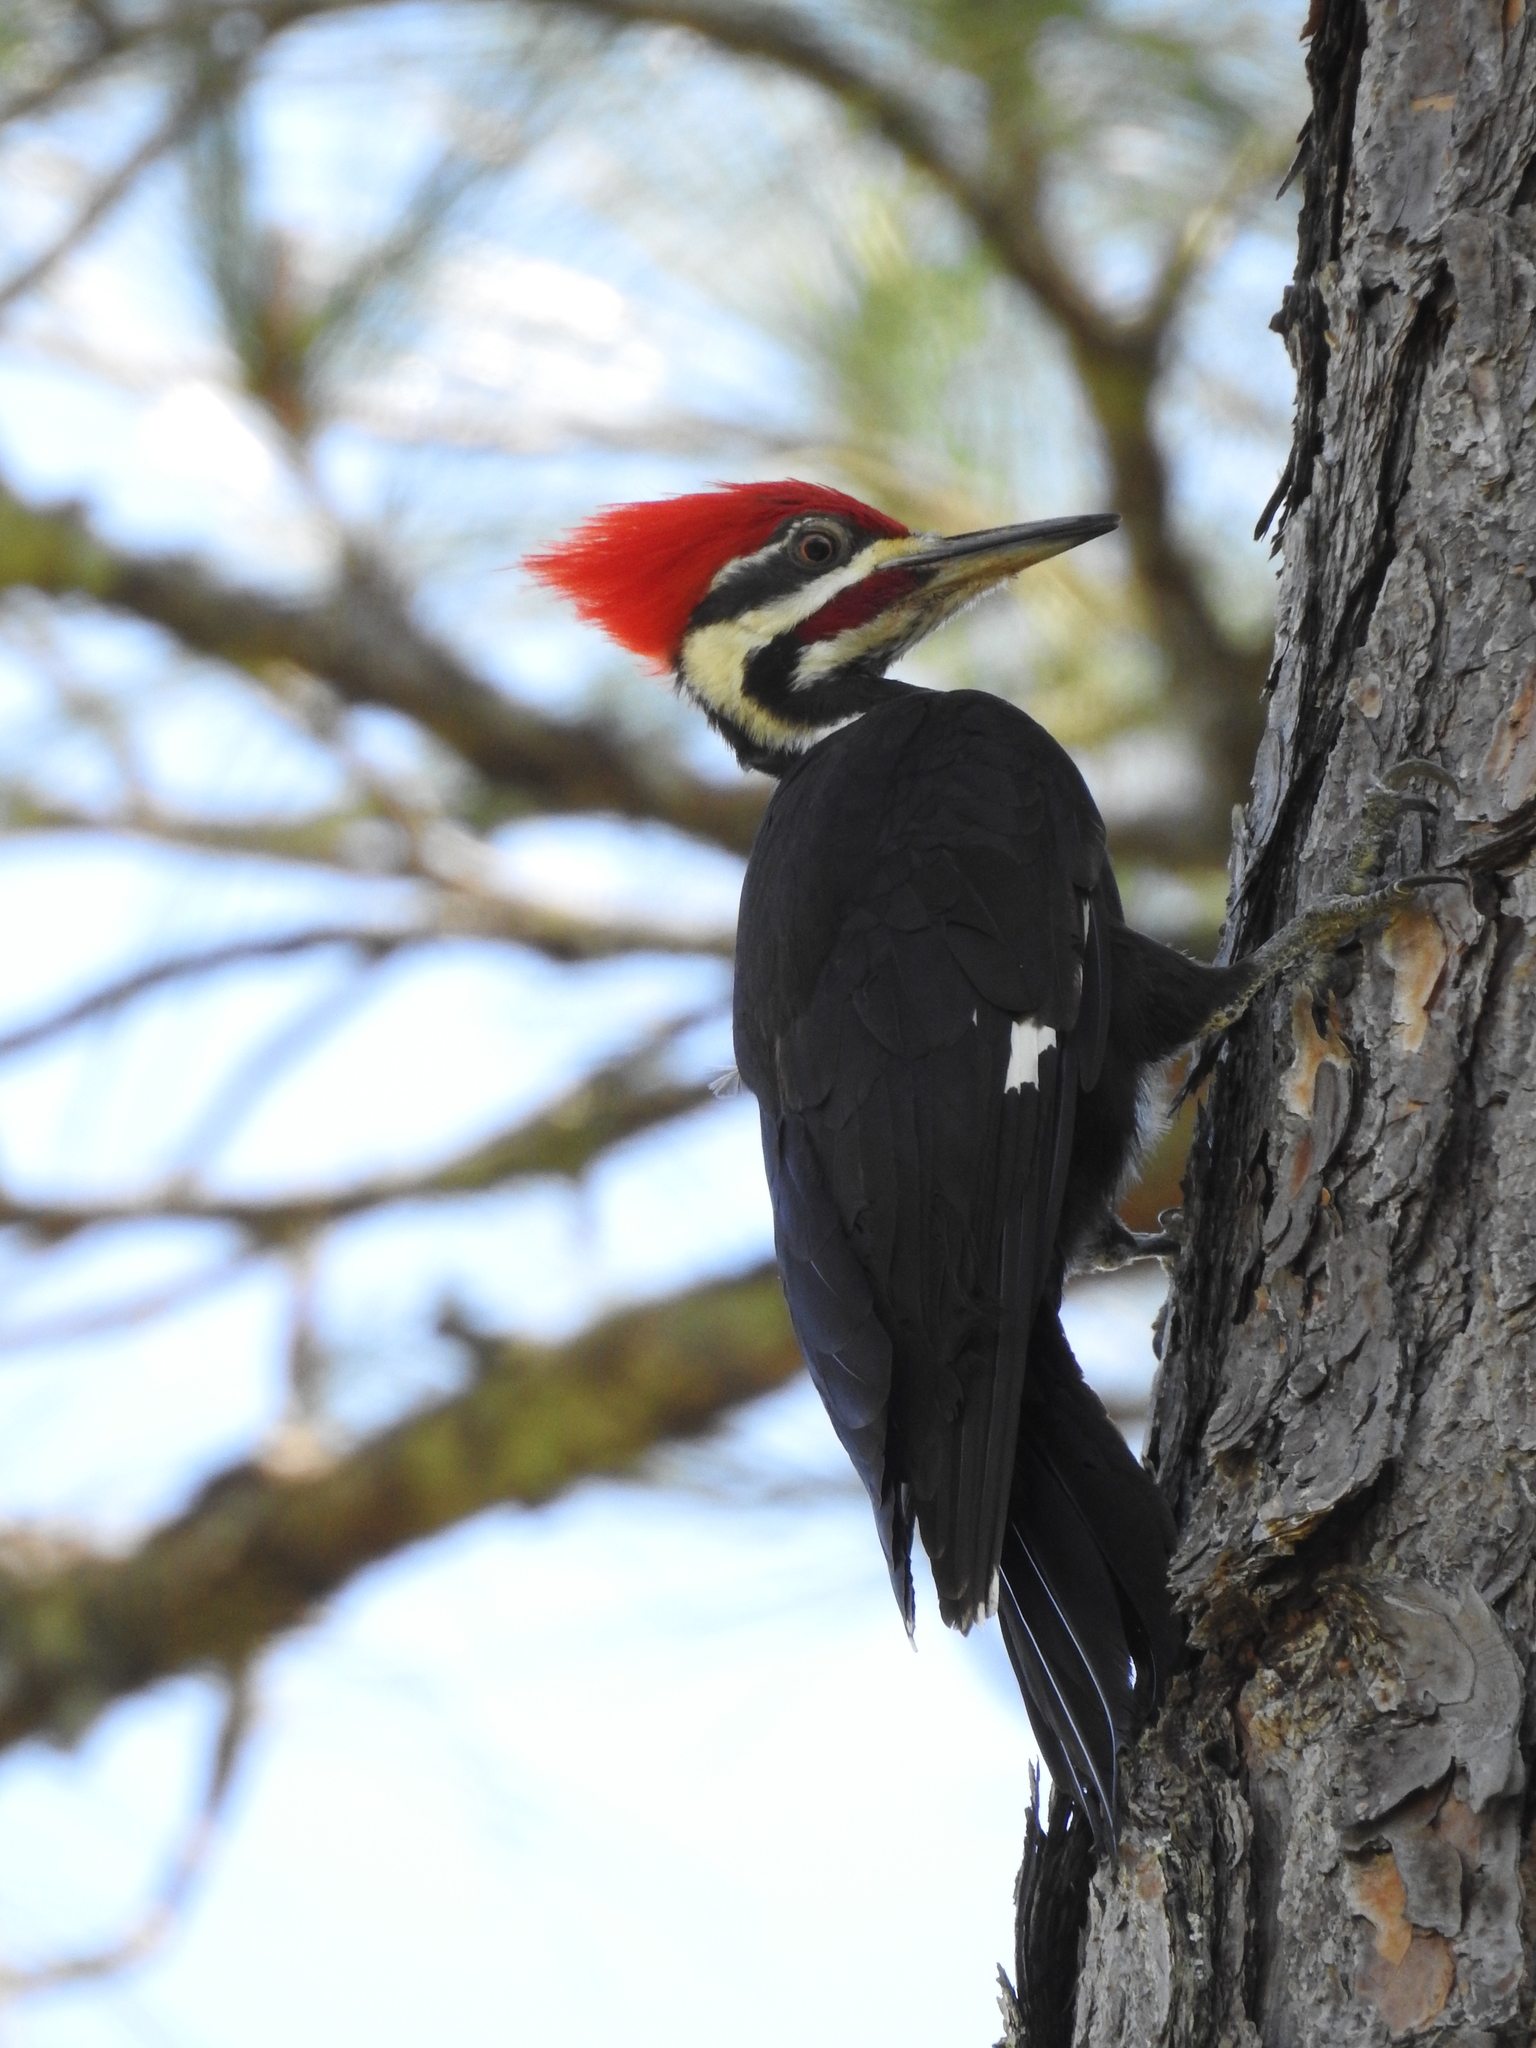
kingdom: Animalia
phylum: Chordata
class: Aves
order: Piciformes
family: Picidae
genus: Dryocopus
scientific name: Dryocopus pileatus
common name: Pileated woodpecker
